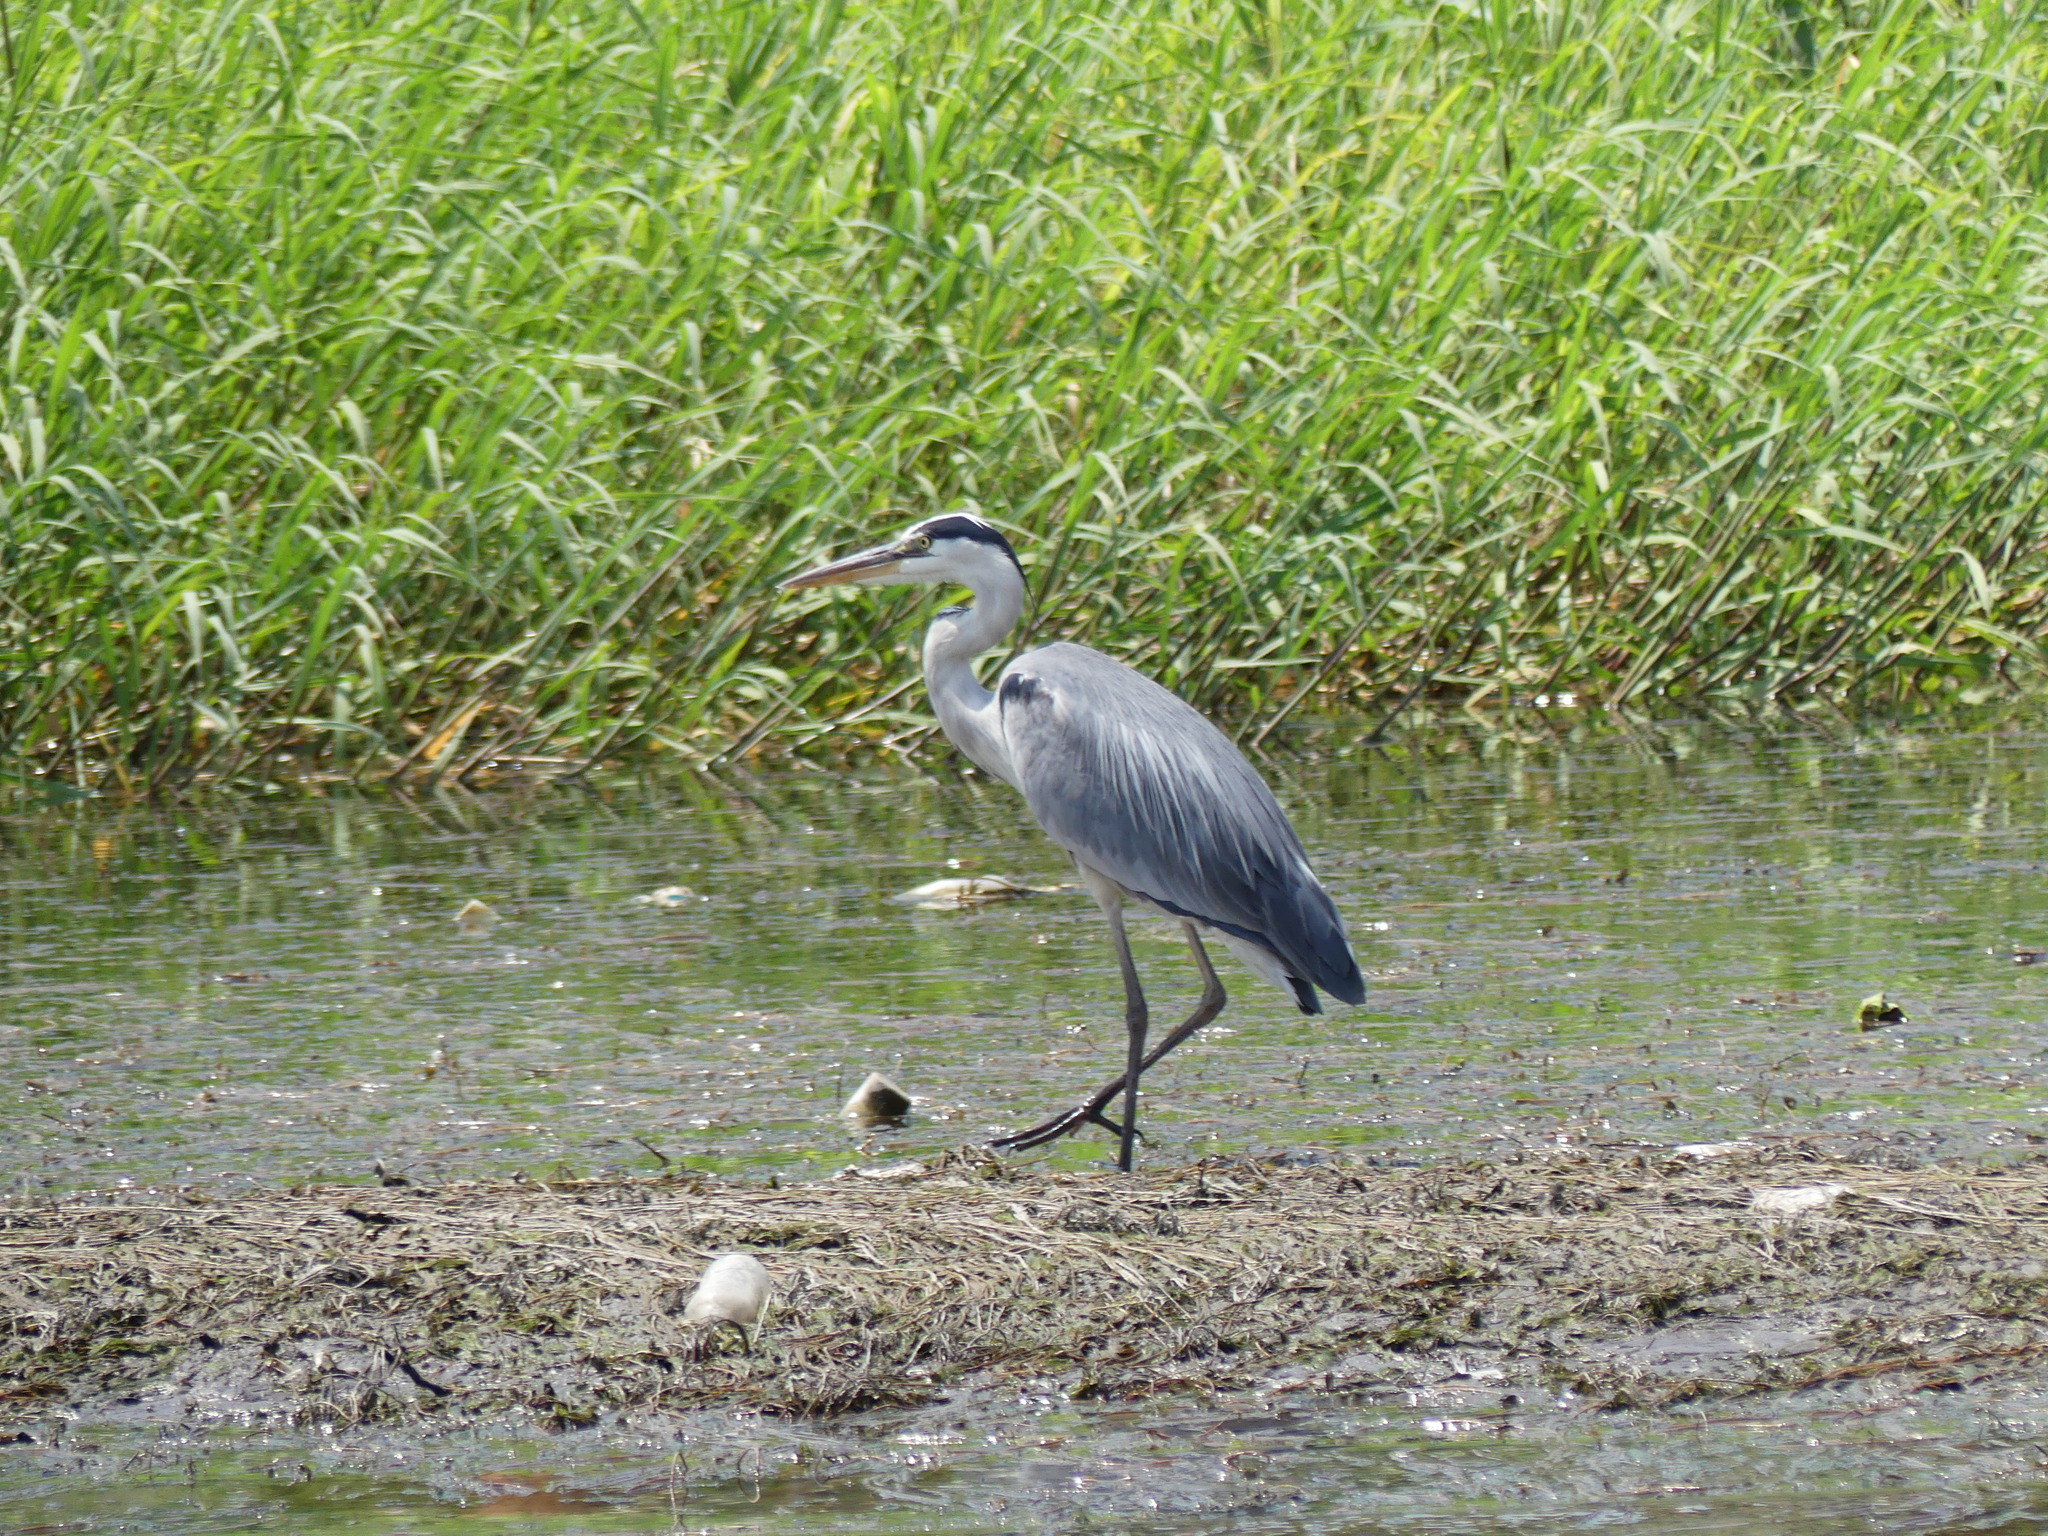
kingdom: Animalia
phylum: Chordata
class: Aves
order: Pelecaniformes
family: Ardeidae
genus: Ardea
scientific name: Ardea cinerea
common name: Grey heron
